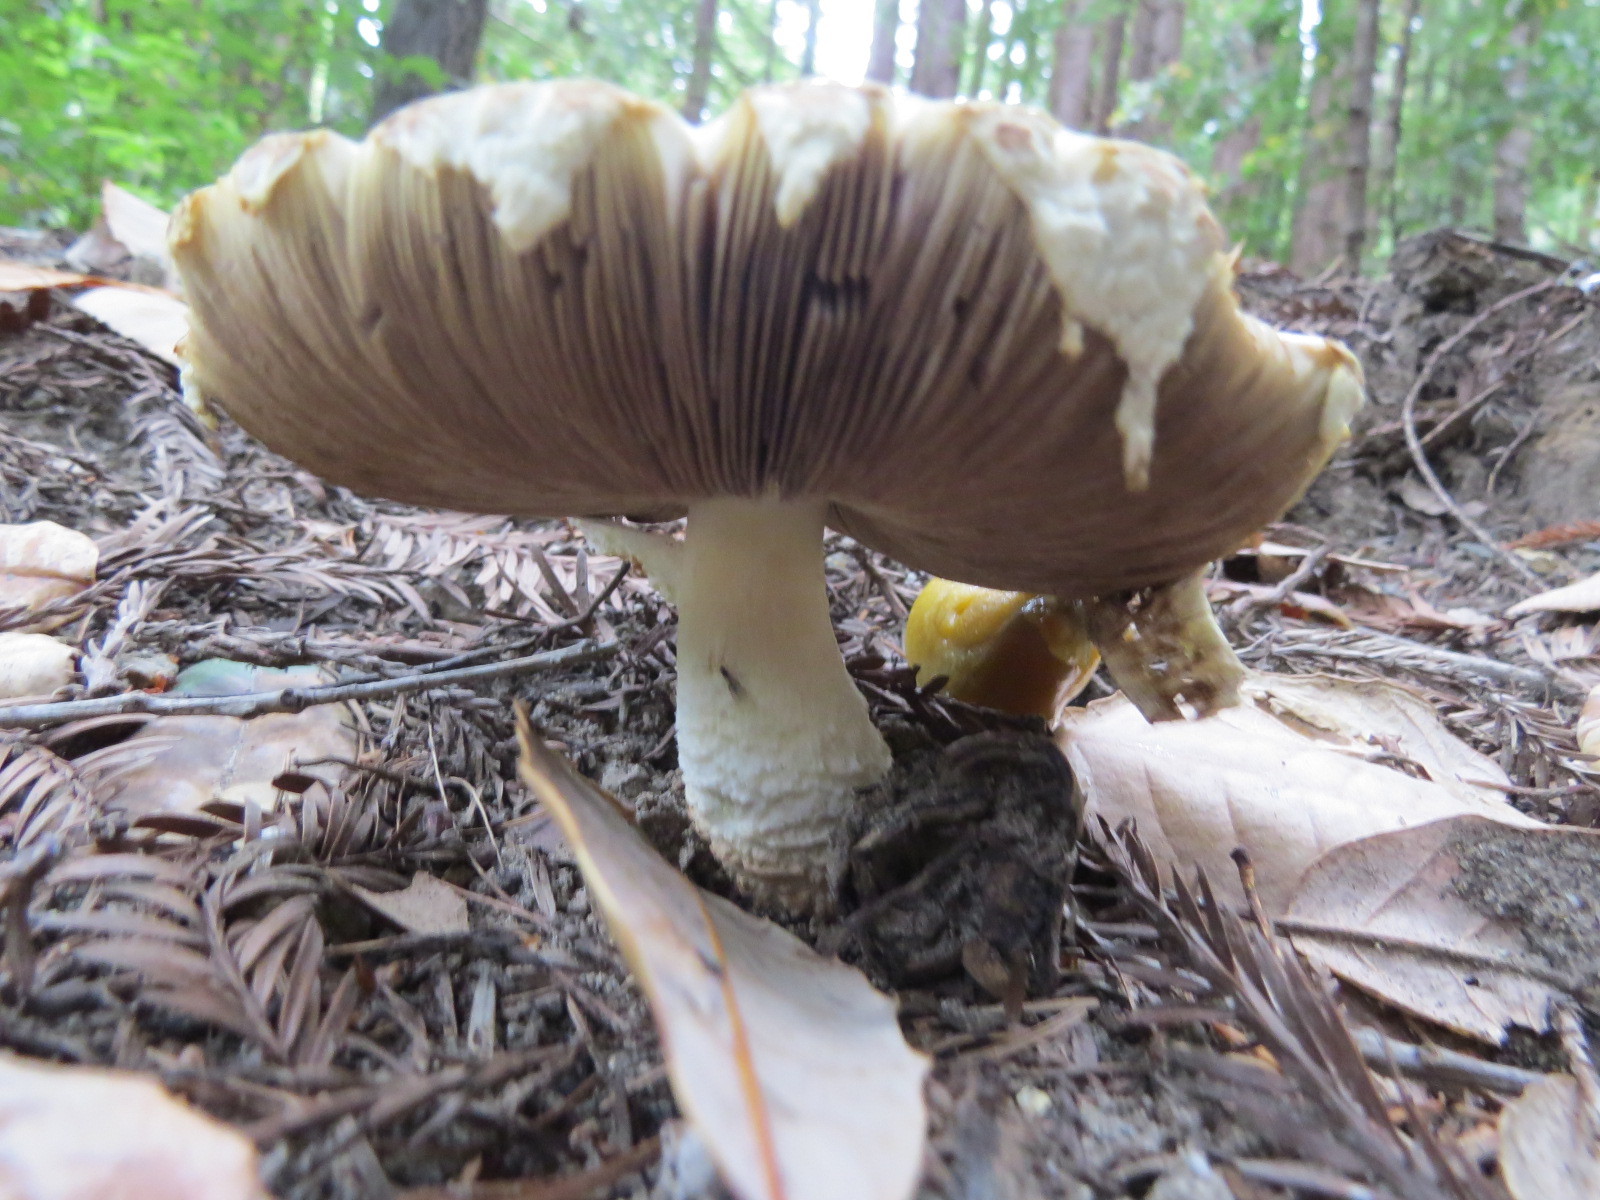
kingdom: Fungi
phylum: Basidiomycota
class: Agaricomycetes
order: Agaricales
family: Agaricaceae
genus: Agaricus
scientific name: Agaricus augustus
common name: Prince
